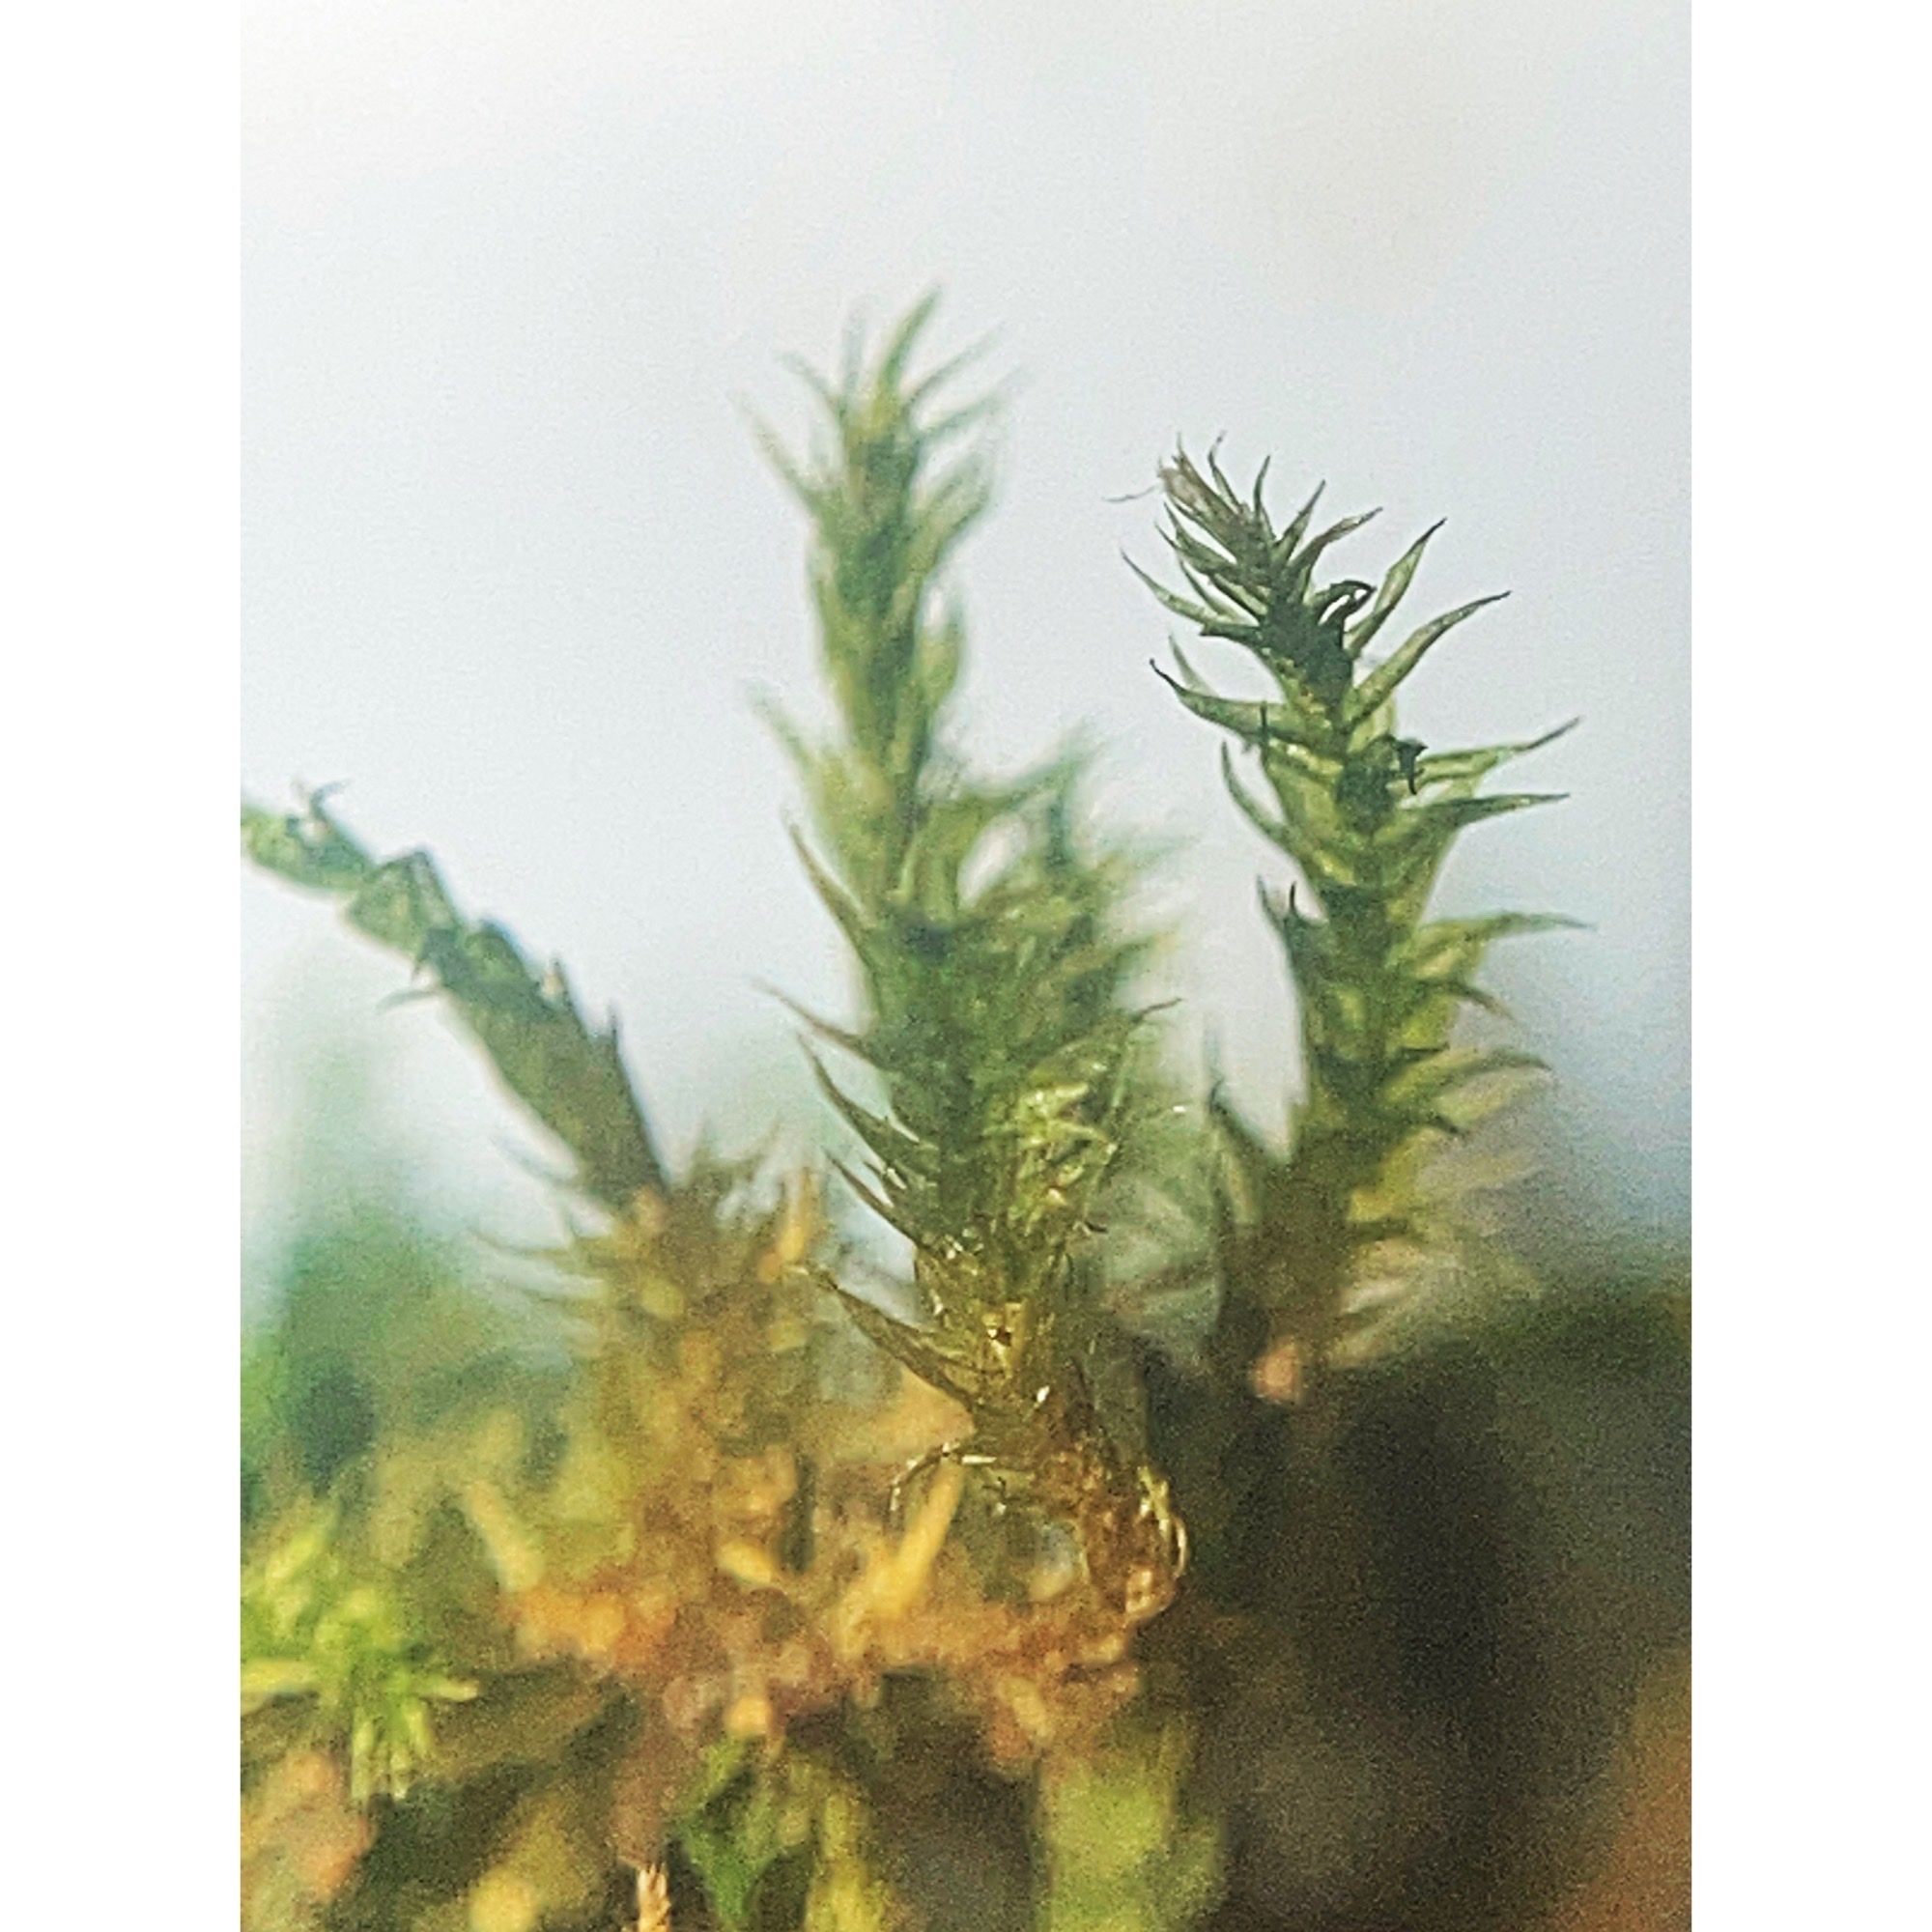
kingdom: Plantae
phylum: Bryophyta
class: Bryopsida
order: Hypnales
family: Amblystegiaceae
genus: Hygroamblystegium
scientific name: Hygroamblystegium varium
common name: Willow feather-moss
